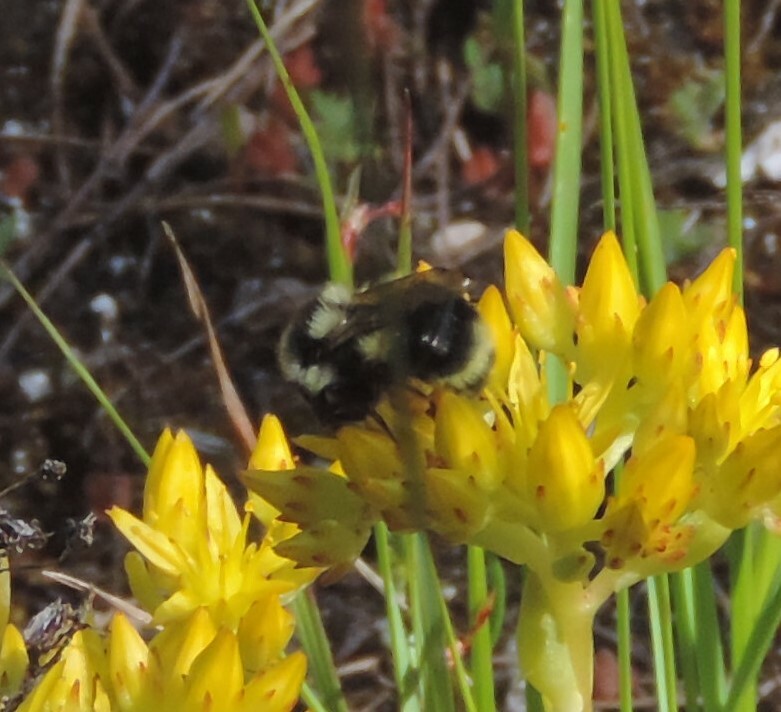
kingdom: Animalia
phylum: Arthropoda
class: Insecta
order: Hymenoptera
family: Apidae
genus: Bombus
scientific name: Bombus vancouverensis
